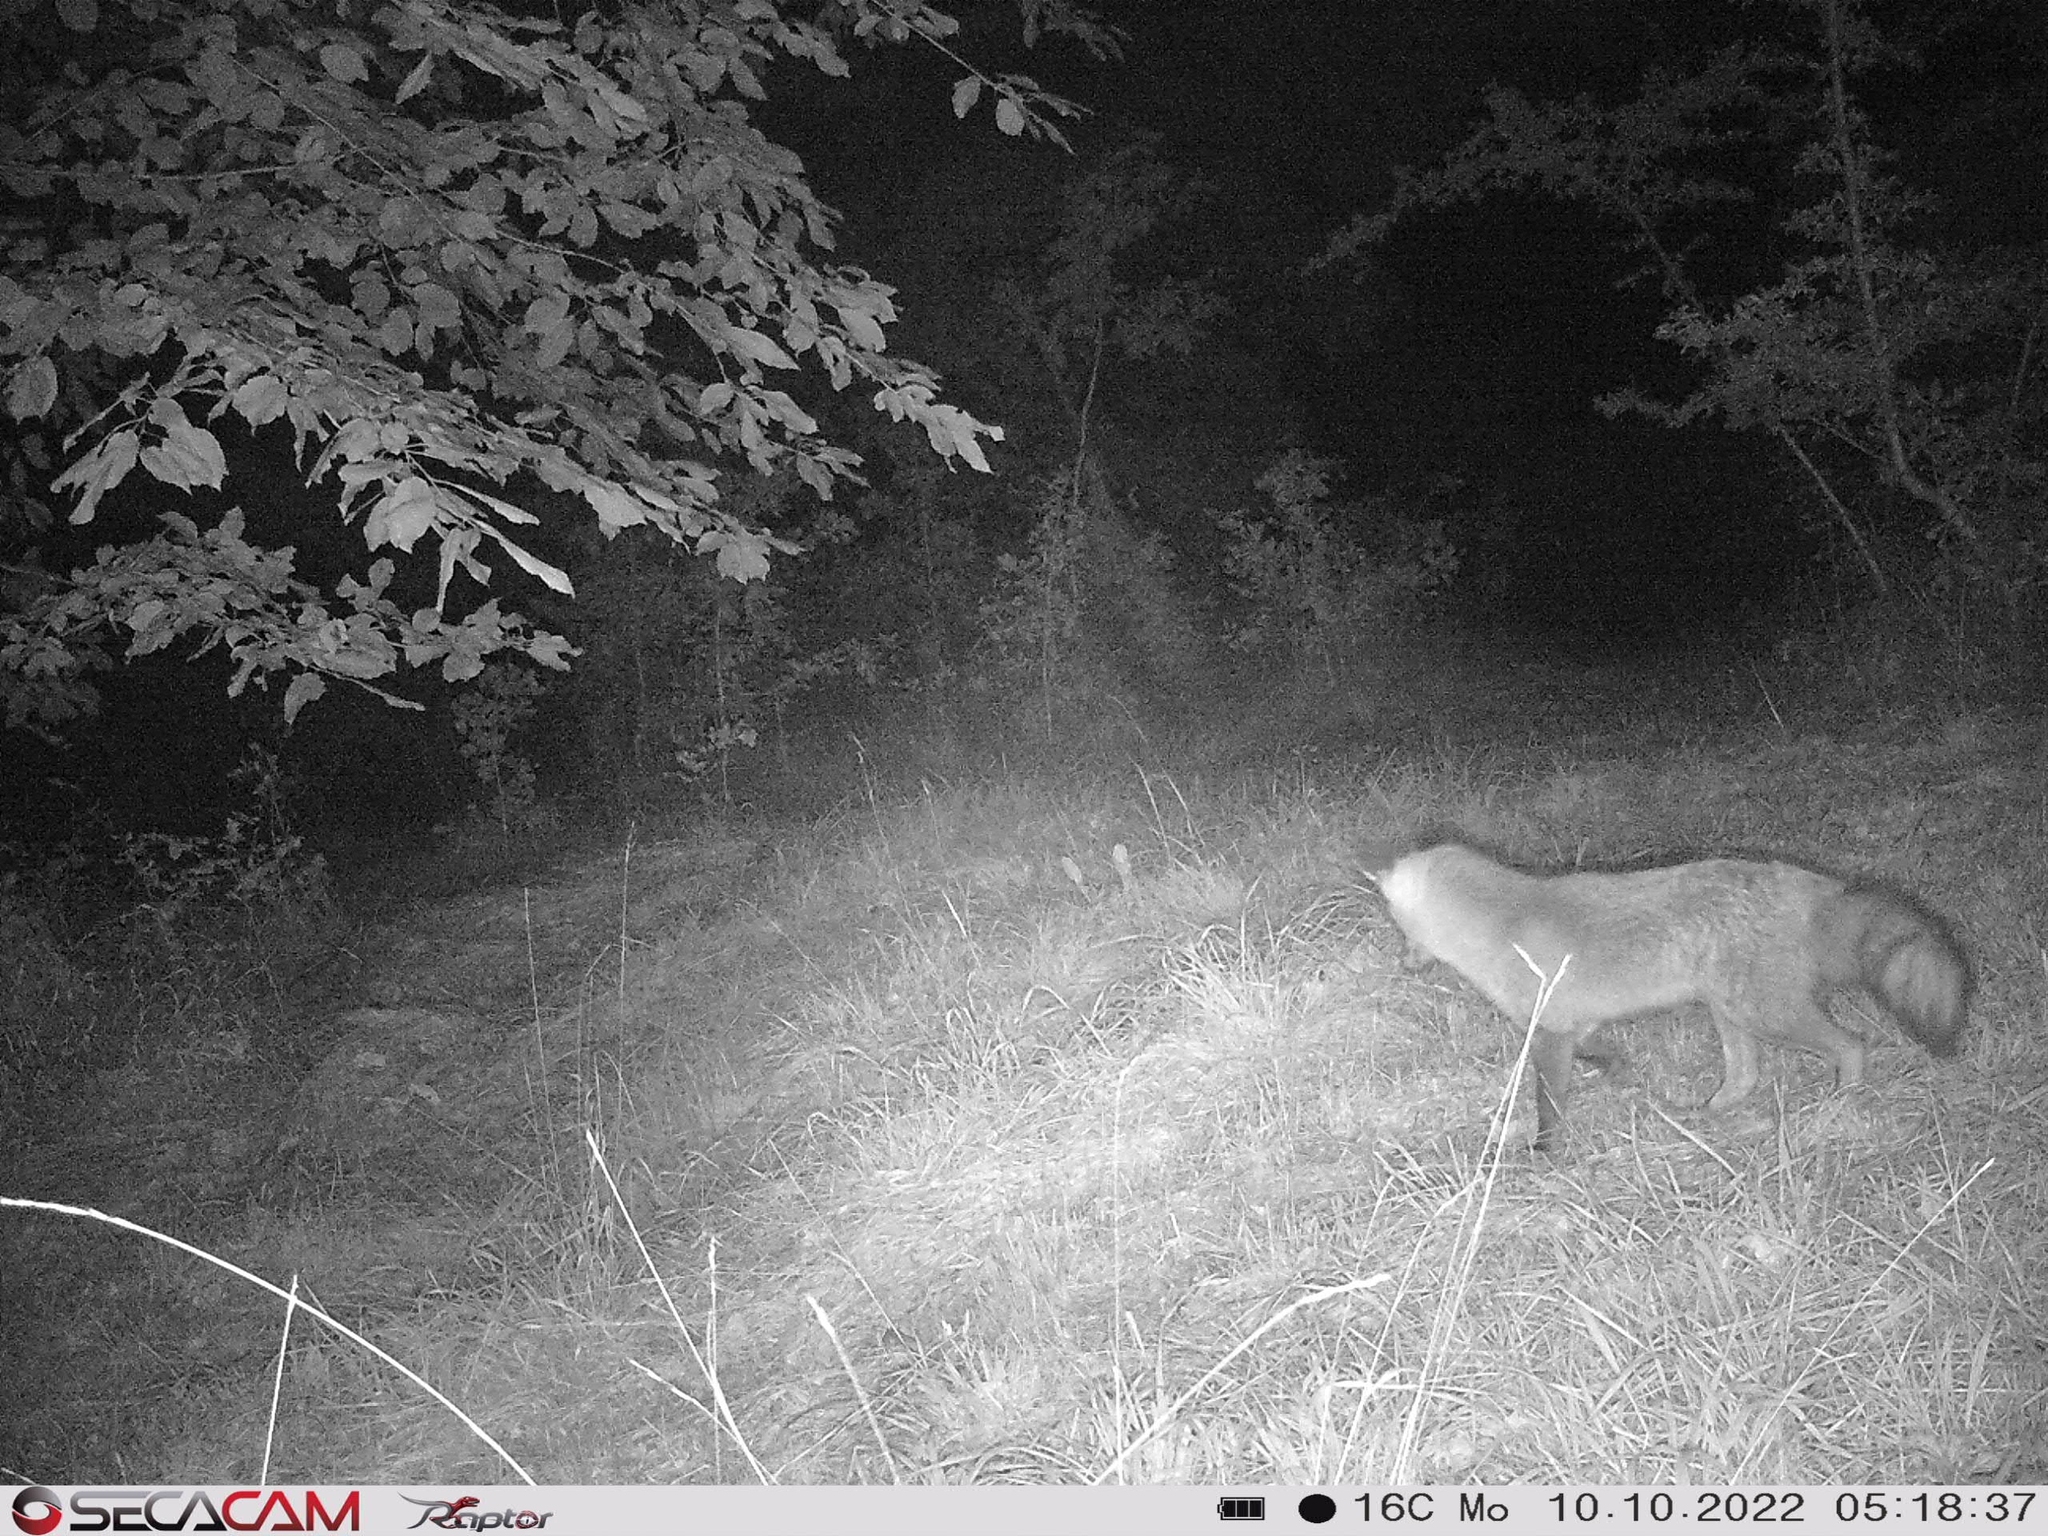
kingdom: Animalia
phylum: Chordata
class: Mammalia
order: Carnivora
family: Canidae
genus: Vulpes
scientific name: Vulpes vulpes
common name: Red fox
